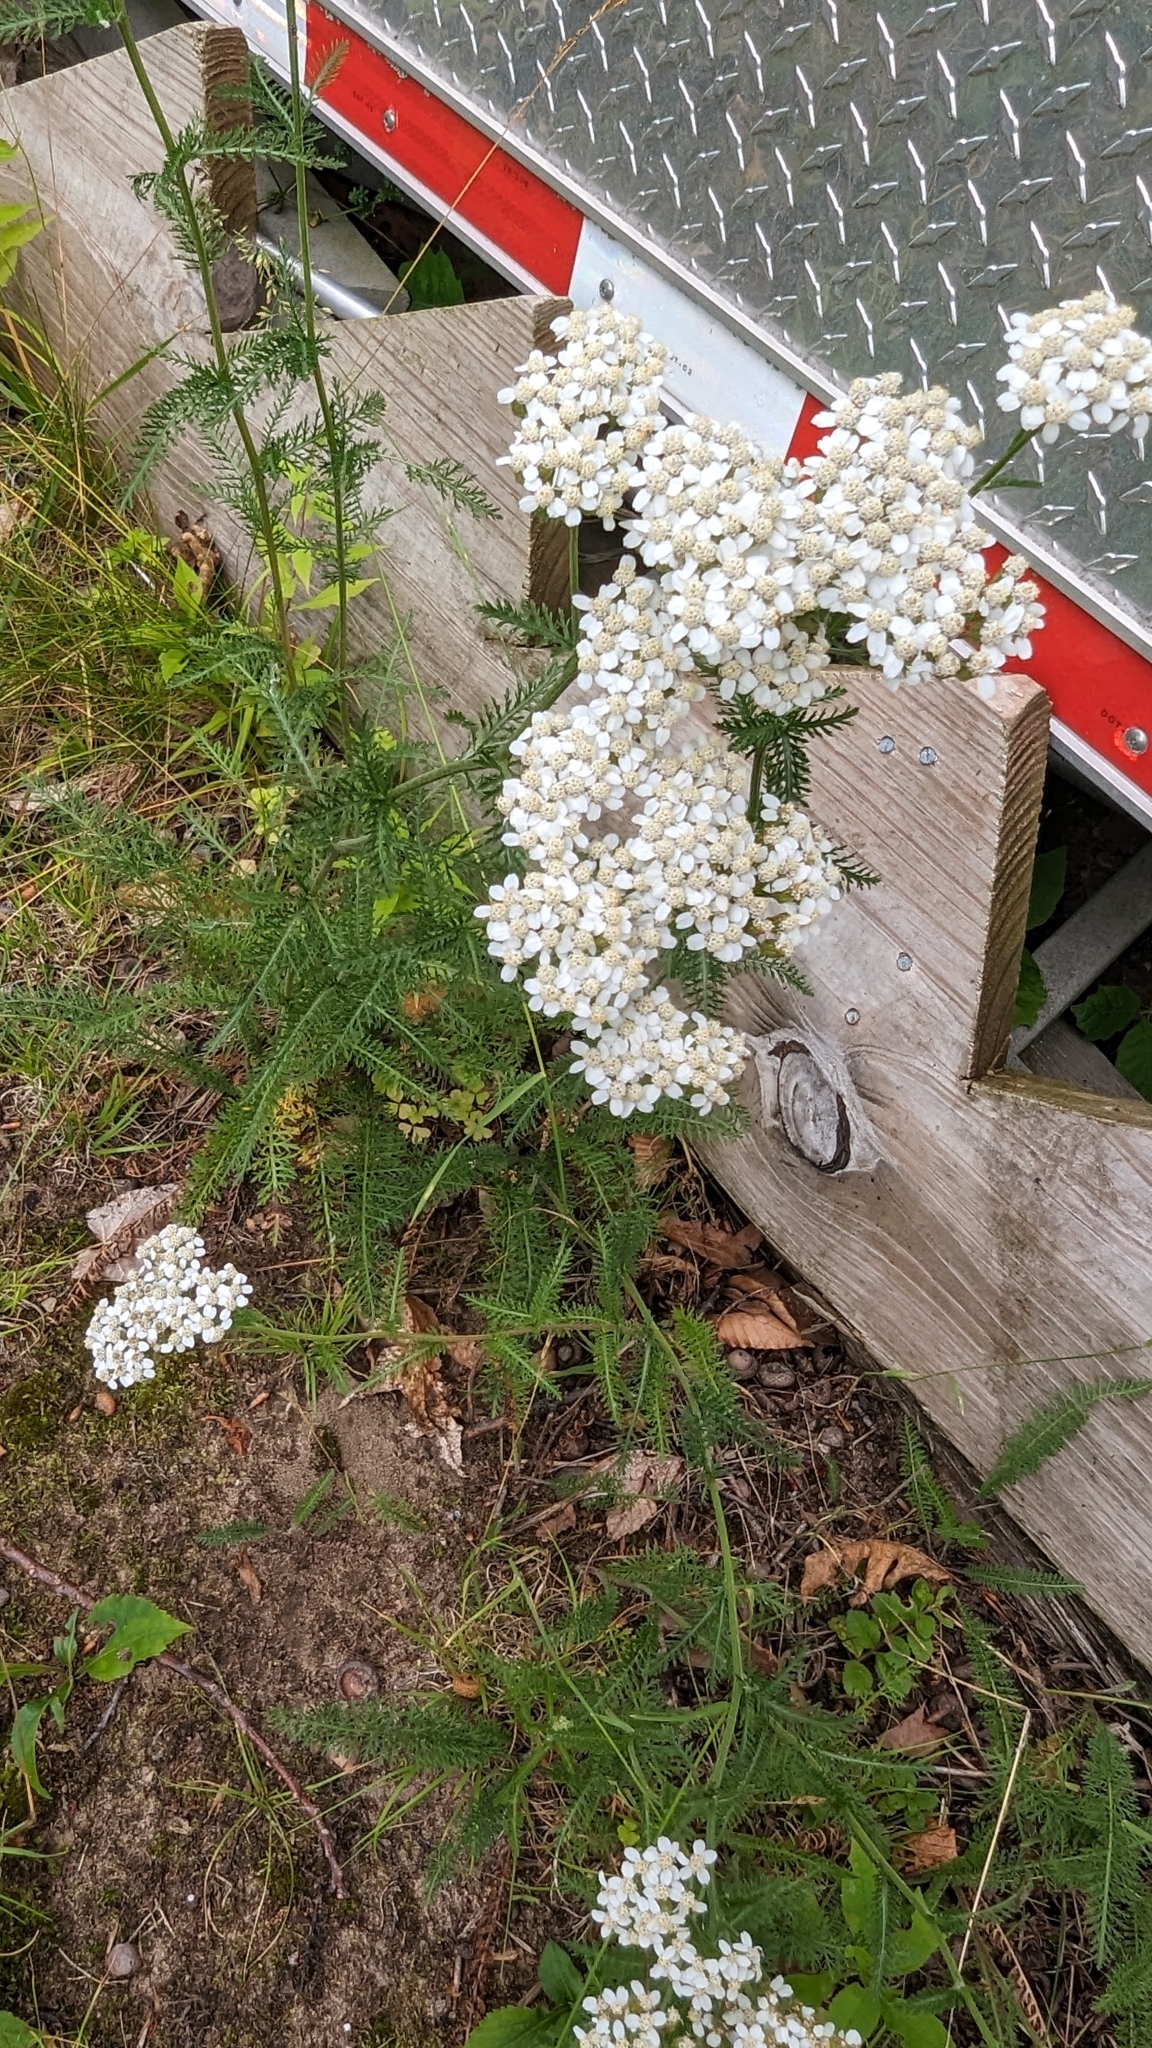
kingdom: Plantae
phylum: Tracheophyta
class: Magnoliopsida
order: Asterales
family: Asteraceae
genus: Achillea
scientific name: Achillea millefolium
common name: Yarrow
